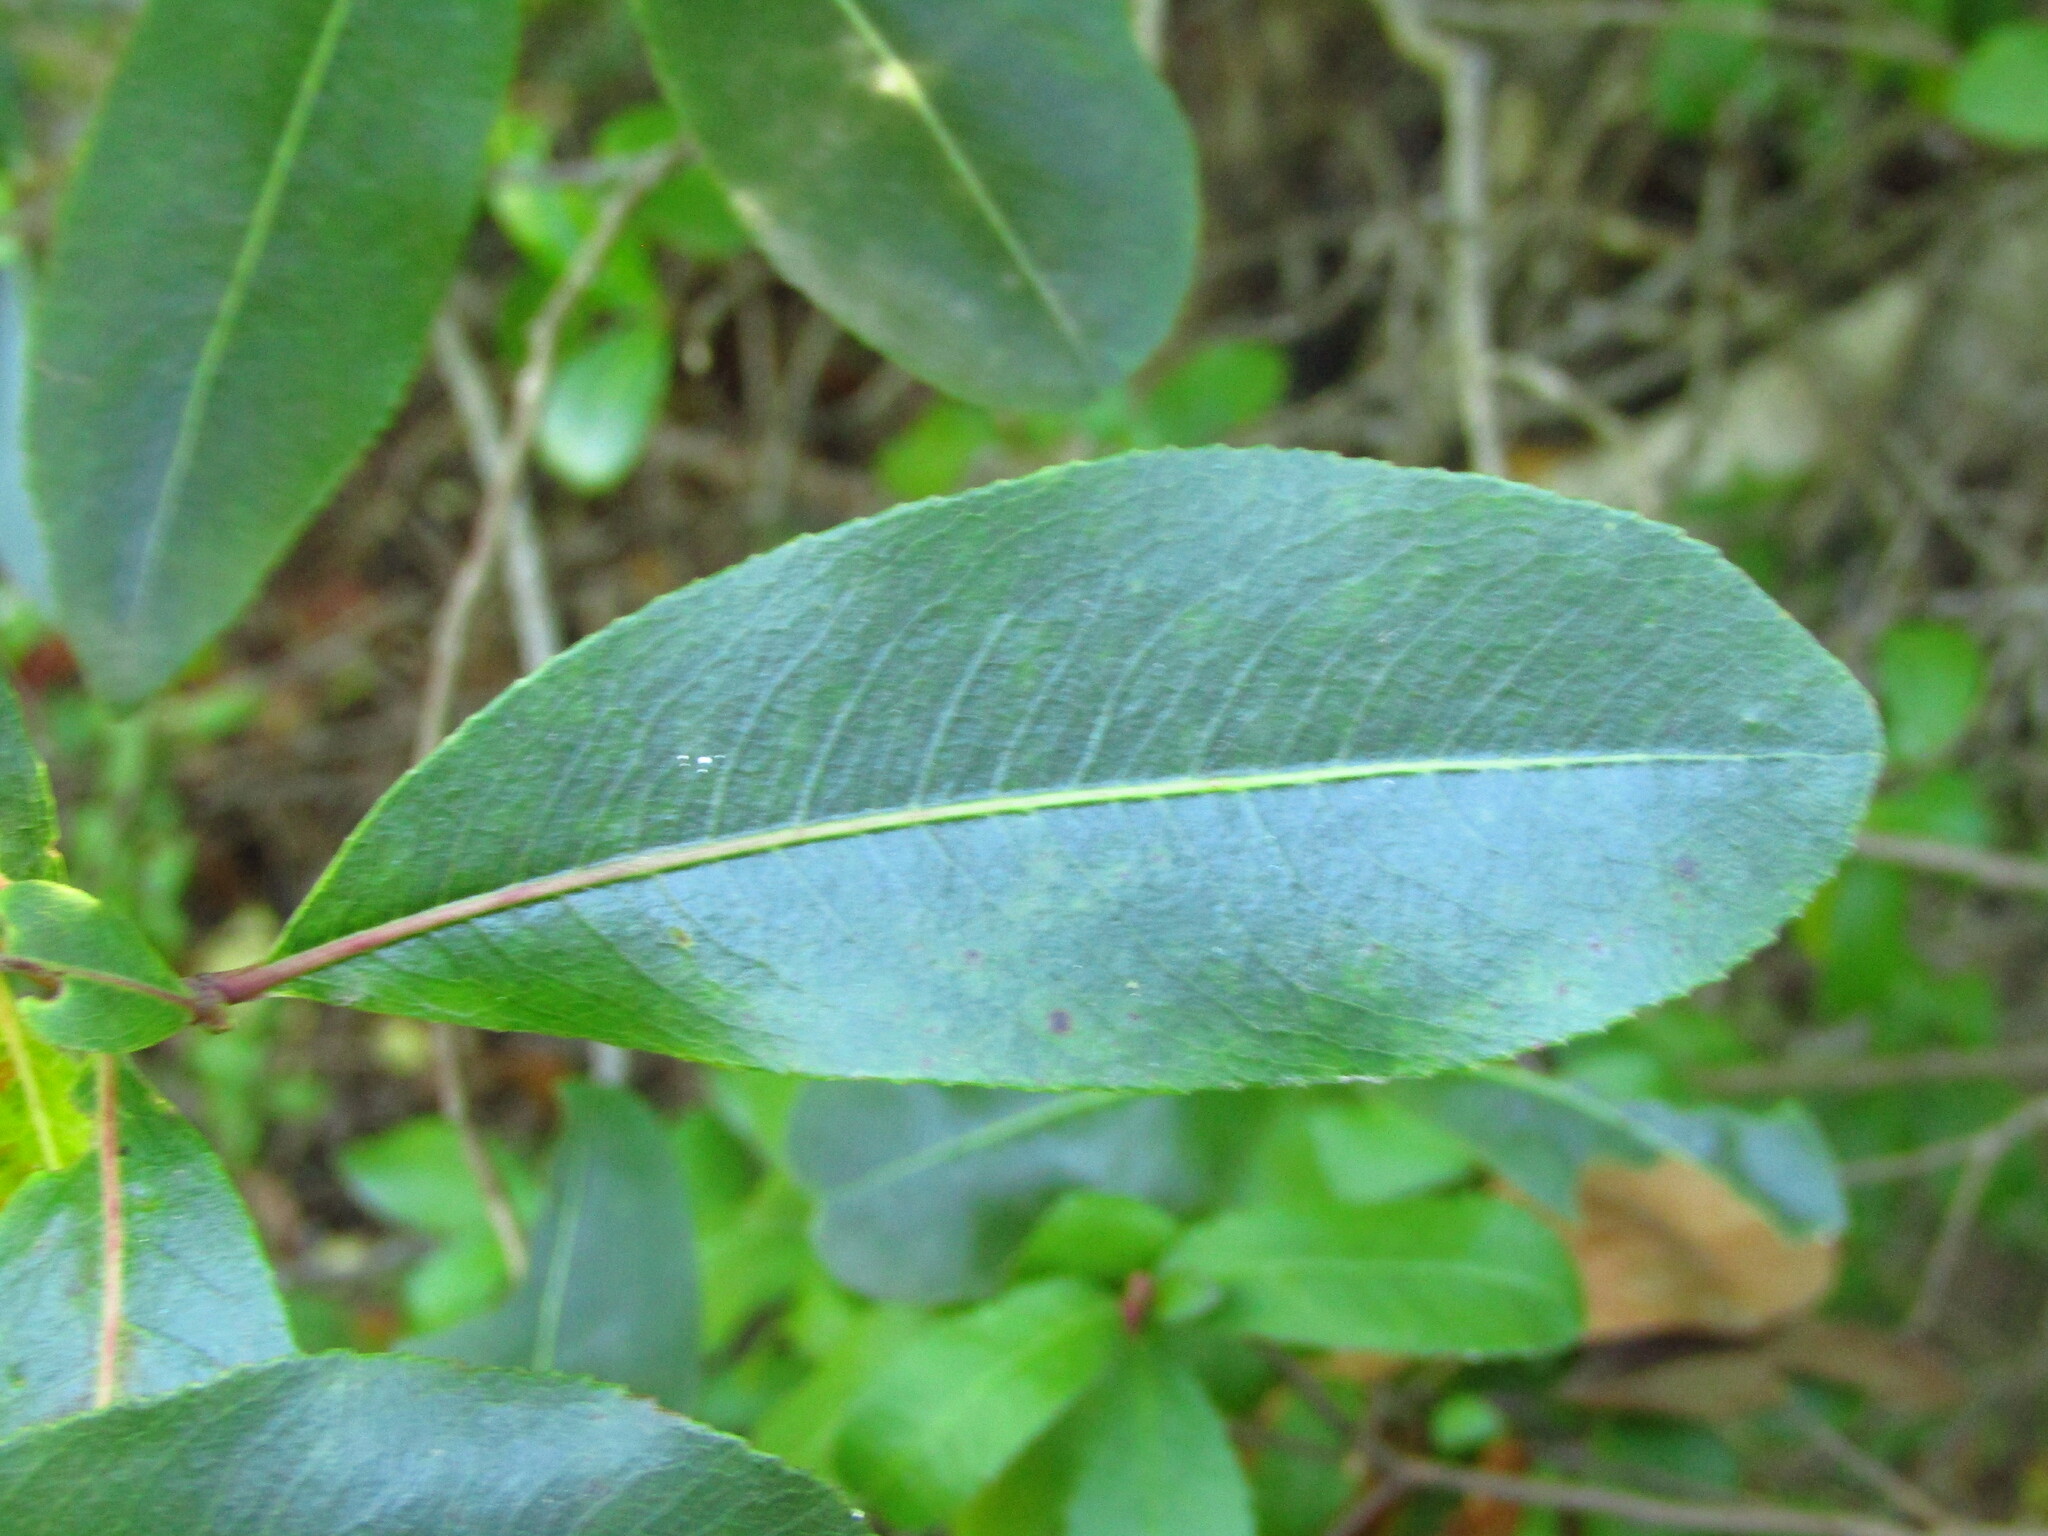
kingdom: Plantae
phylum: Tracheophyta
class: Magnoliopsida
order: Rosales
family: Rosaceae
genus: Kageneckia
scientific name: Kageneckia oblonga
